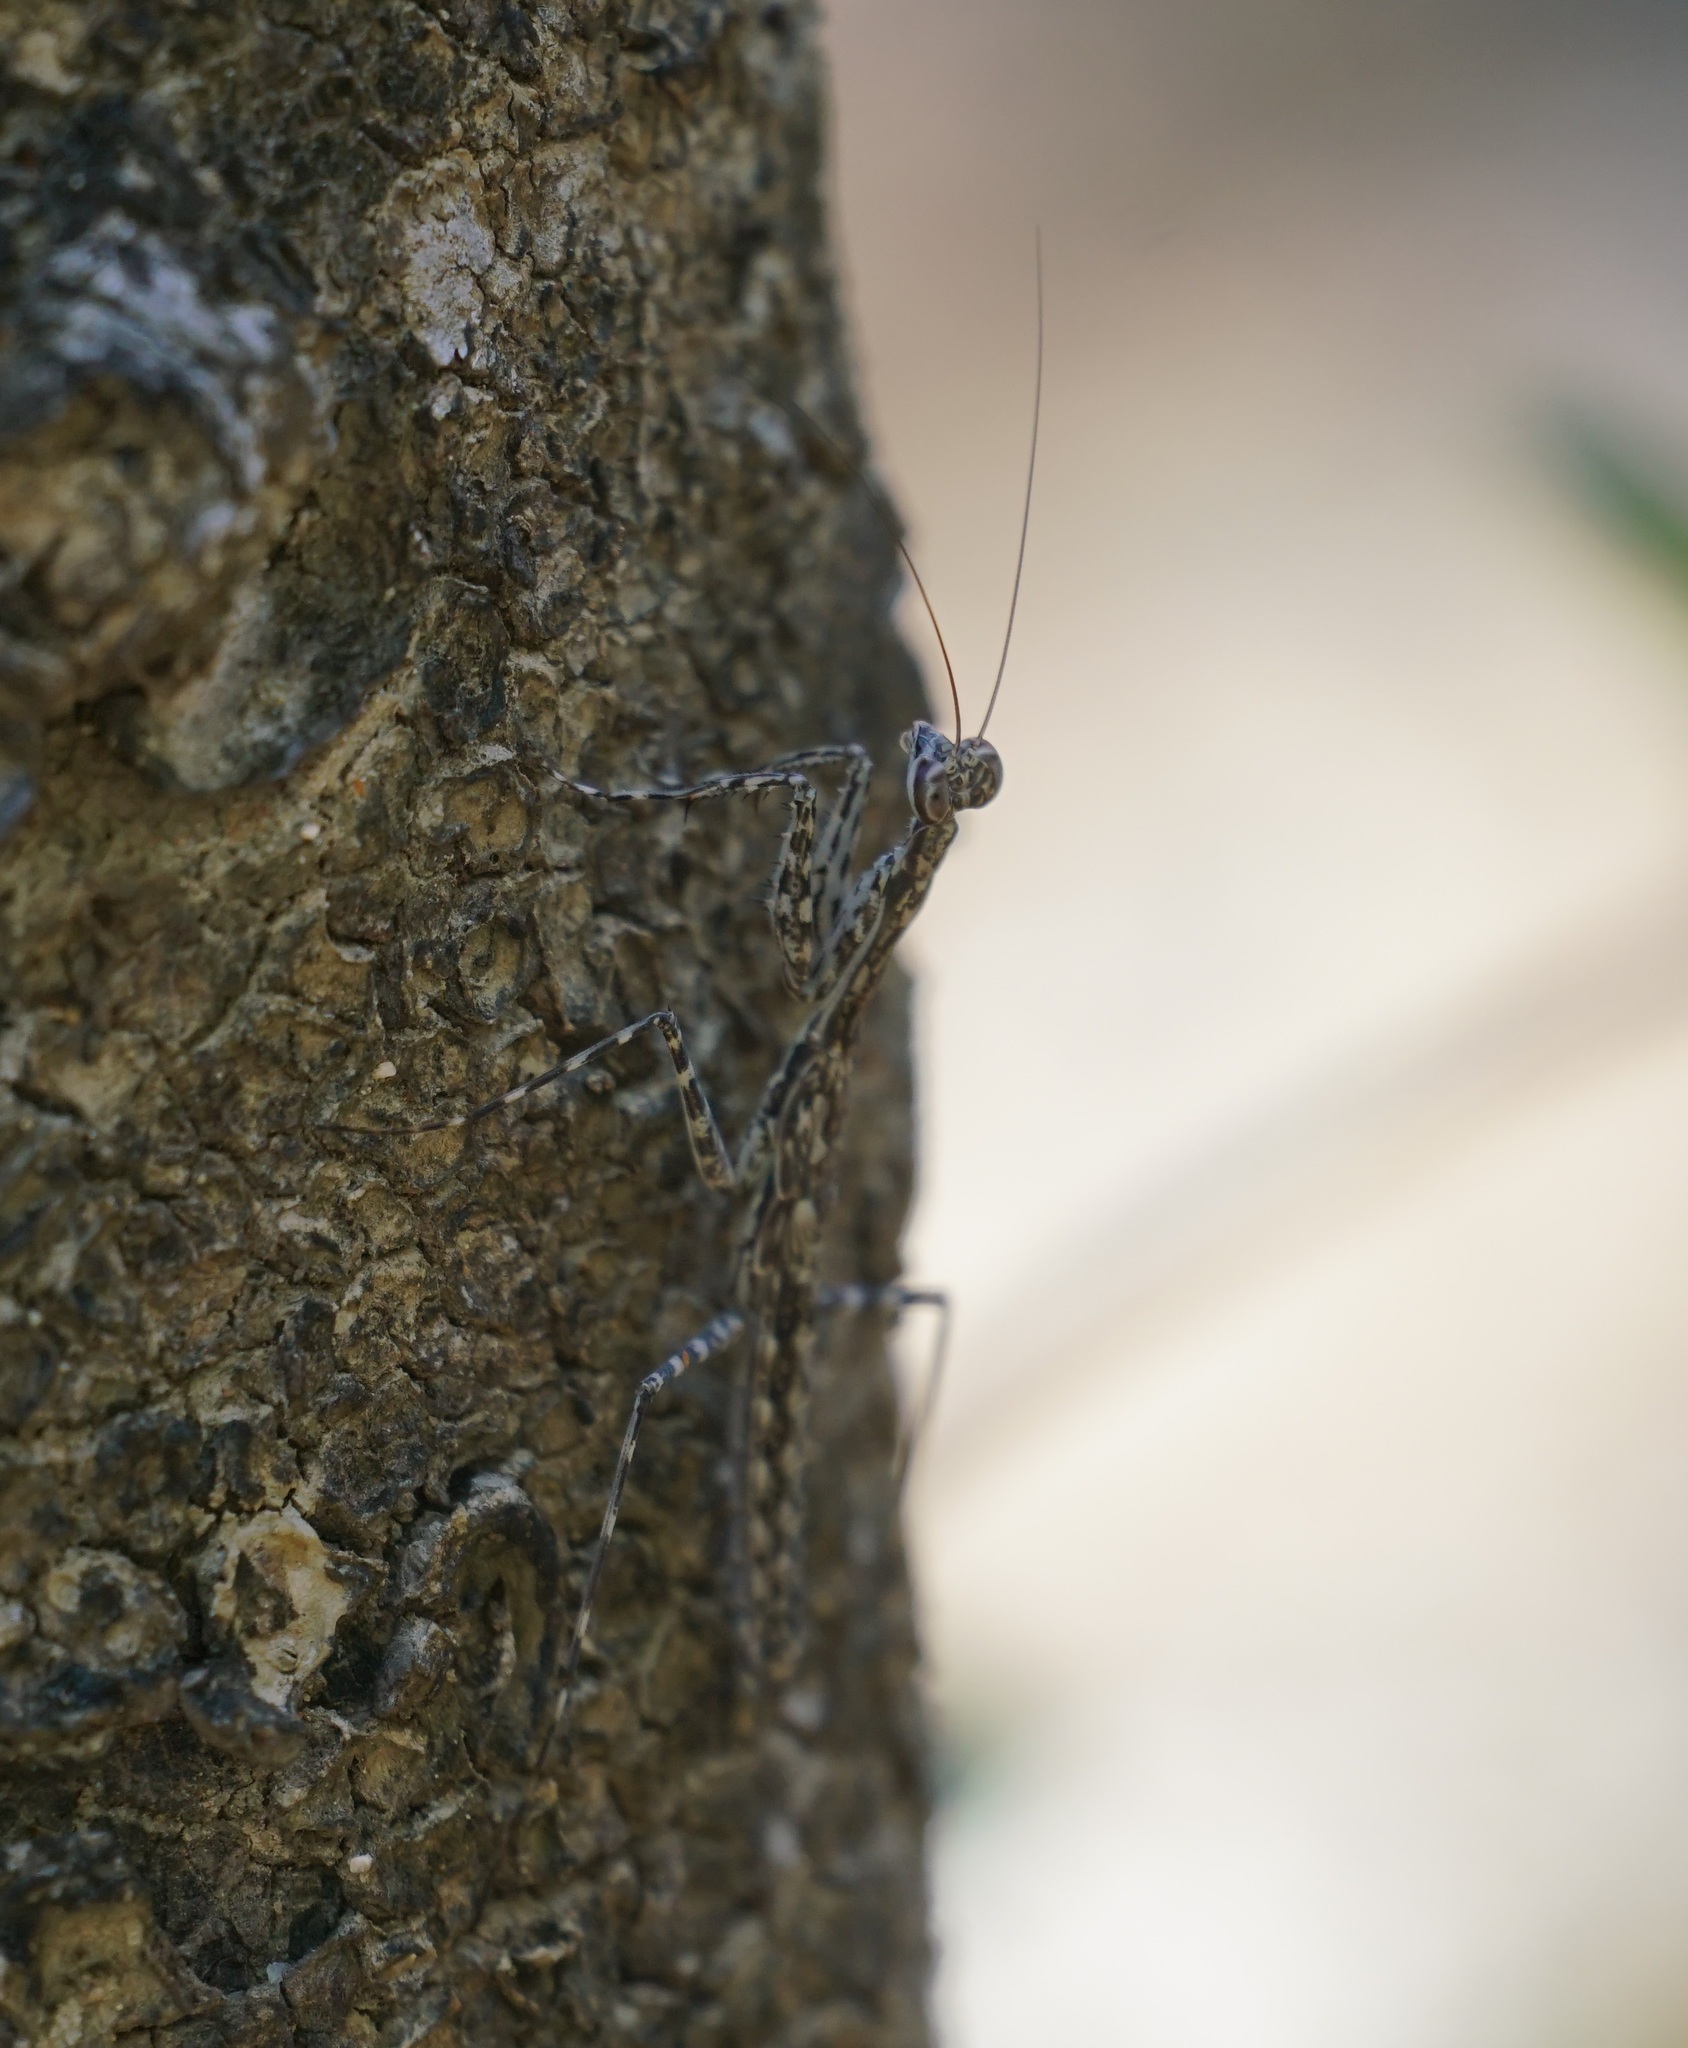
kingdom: Animalia
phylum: Arthropoda
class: Insecta
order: Mantodea
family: Nanomantidae
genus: Ciulfina
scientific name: Ciulfina biseriata
